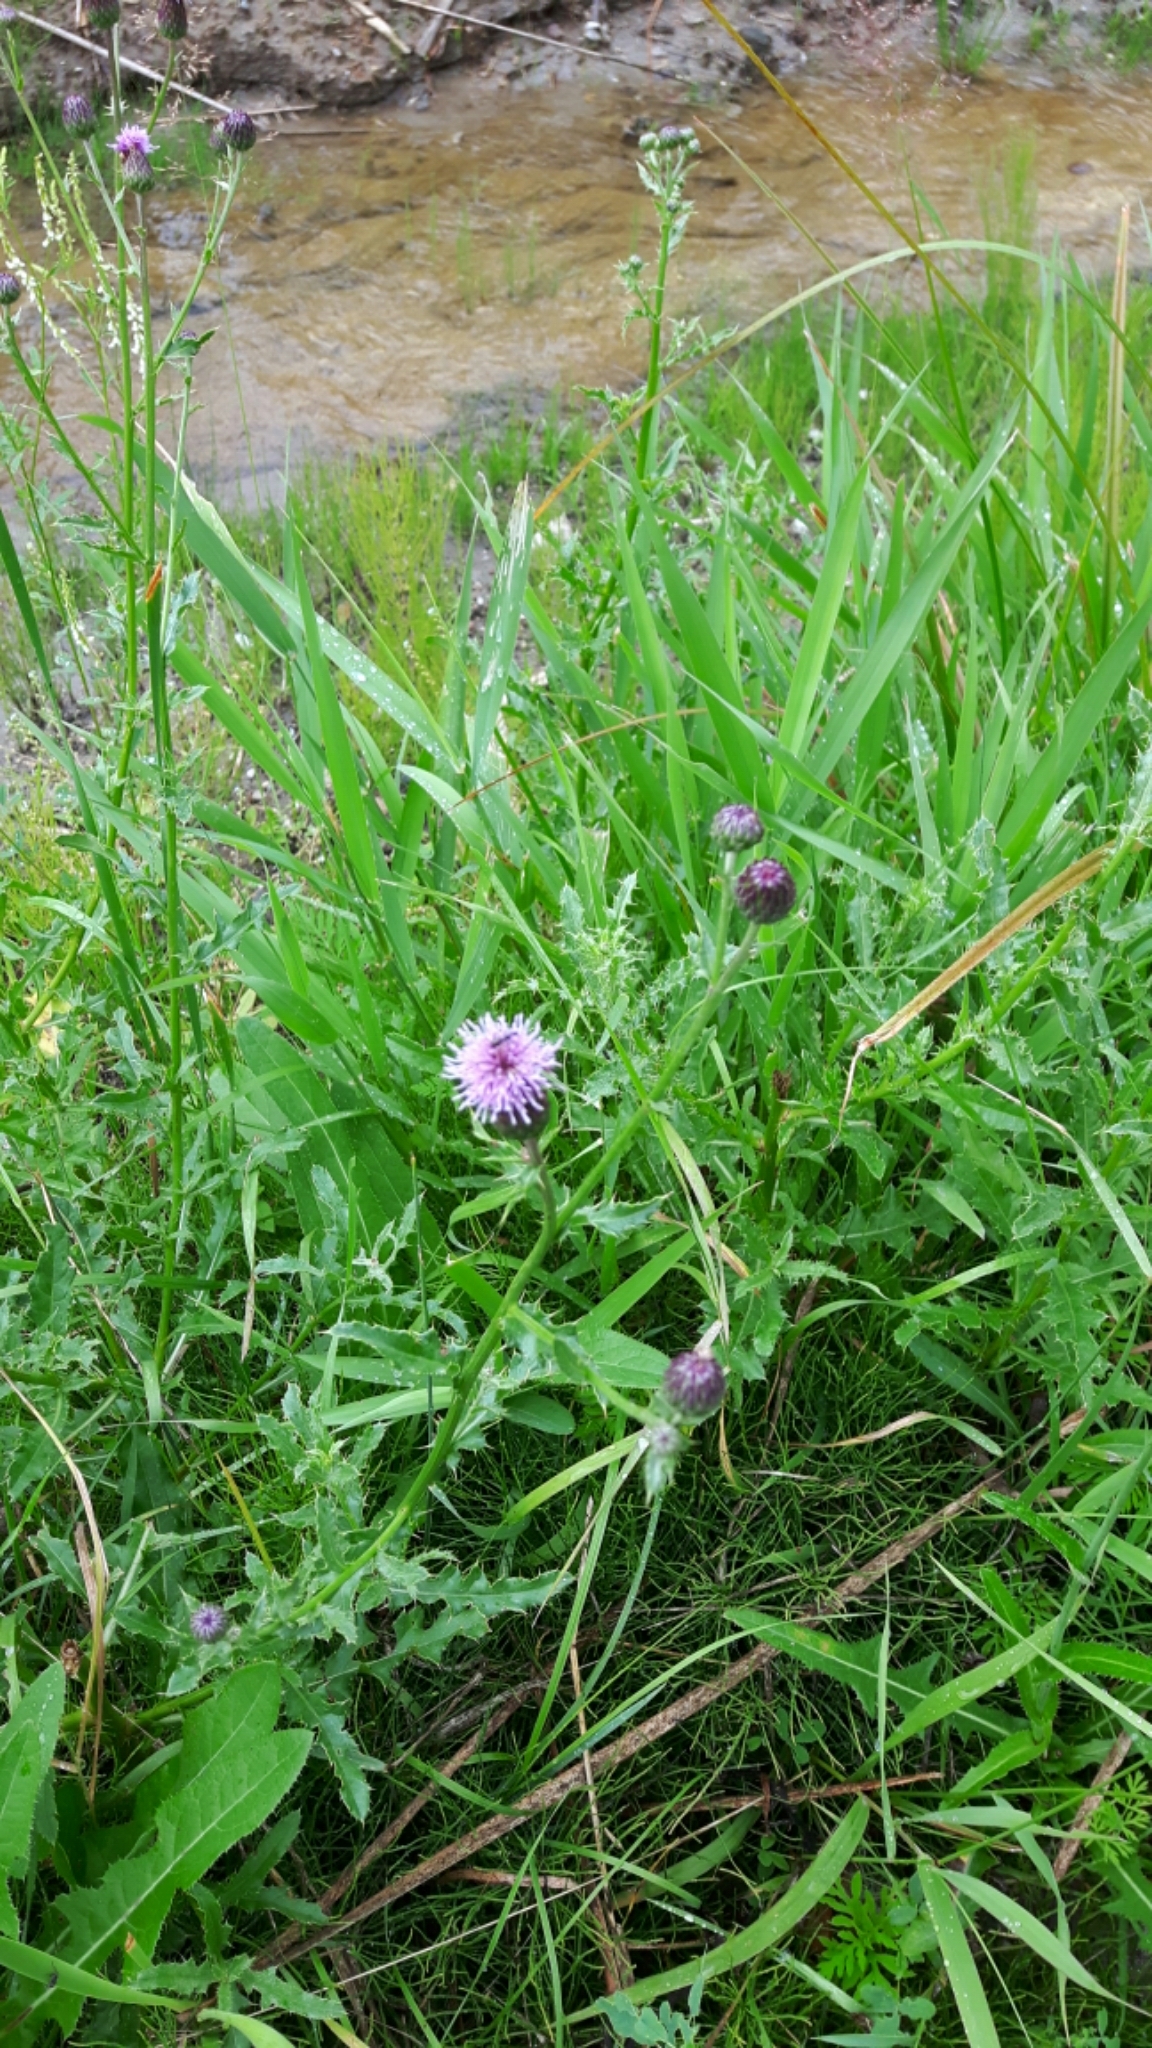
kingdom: Plantae
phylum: Tracheophyta
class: Magnoliopsida
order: Asterales
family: Asteraceae
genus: Cirsium
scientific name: Cirsium arvense
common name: Creeping thistle
